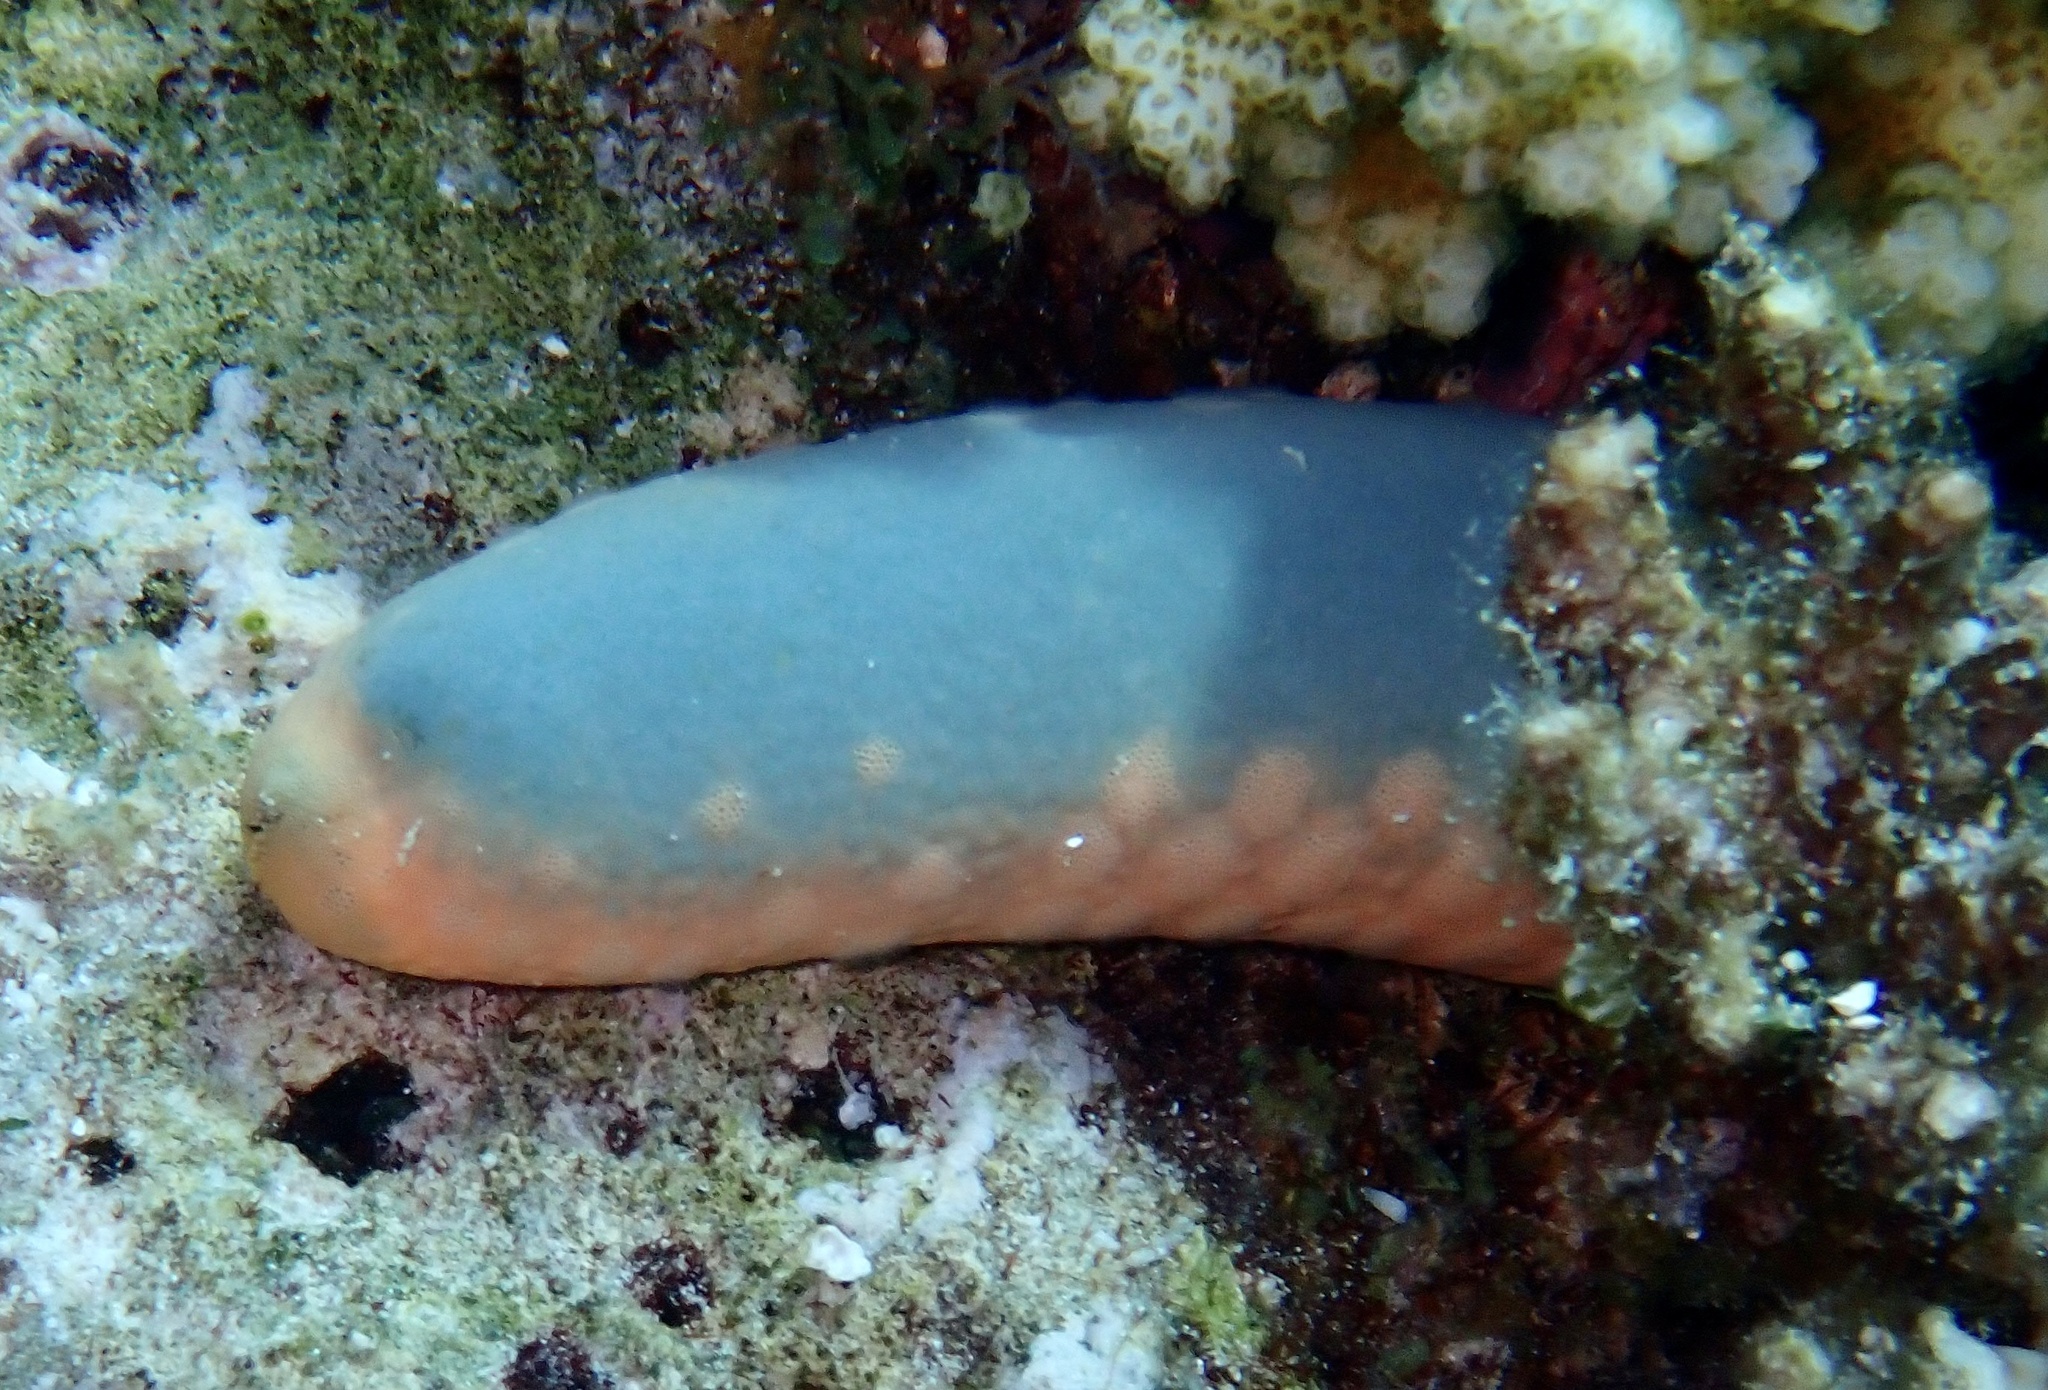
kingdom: Animalia
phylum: Echinodermata
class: Asteroidea
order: Valvatida
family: Ophidiasteridae
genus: Linckia
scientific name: Linckia laevigata
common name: Azure sea star
